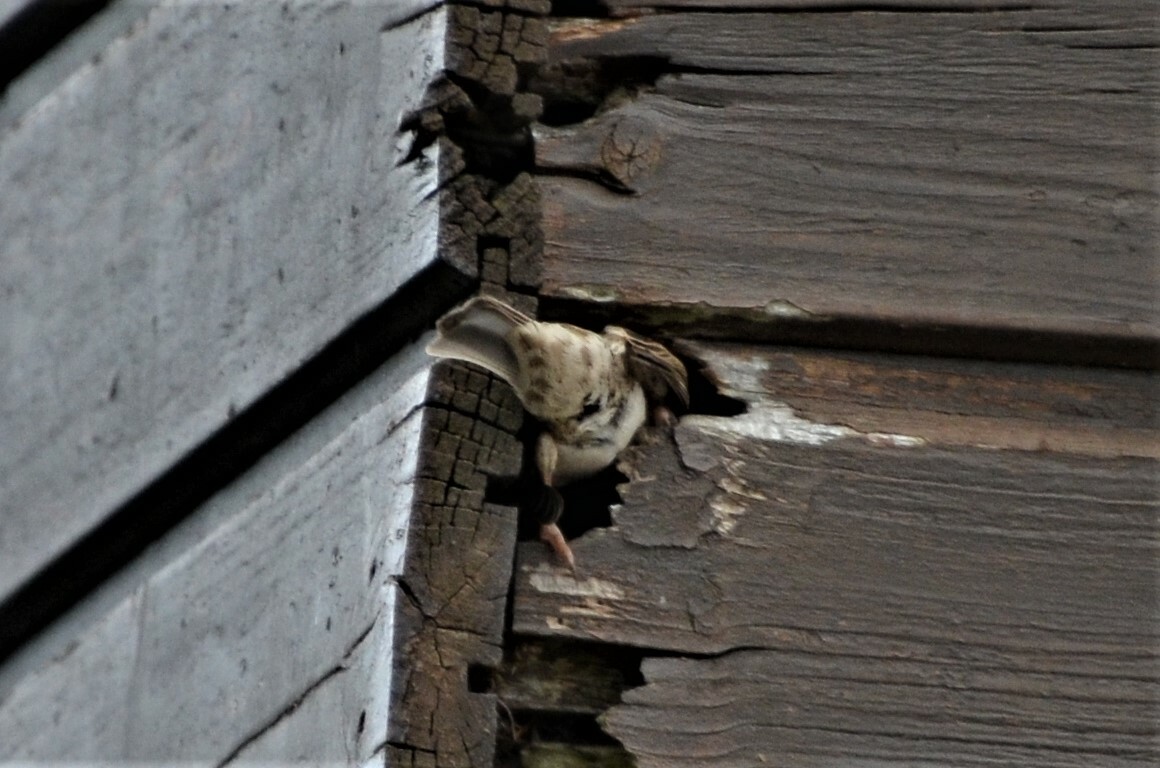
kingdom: Animalia
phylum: Chordata
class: Aves
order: Passeriformes
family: Passeridae
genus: Passer
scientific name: Passer montanus
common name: Eurasian tree sparrow
